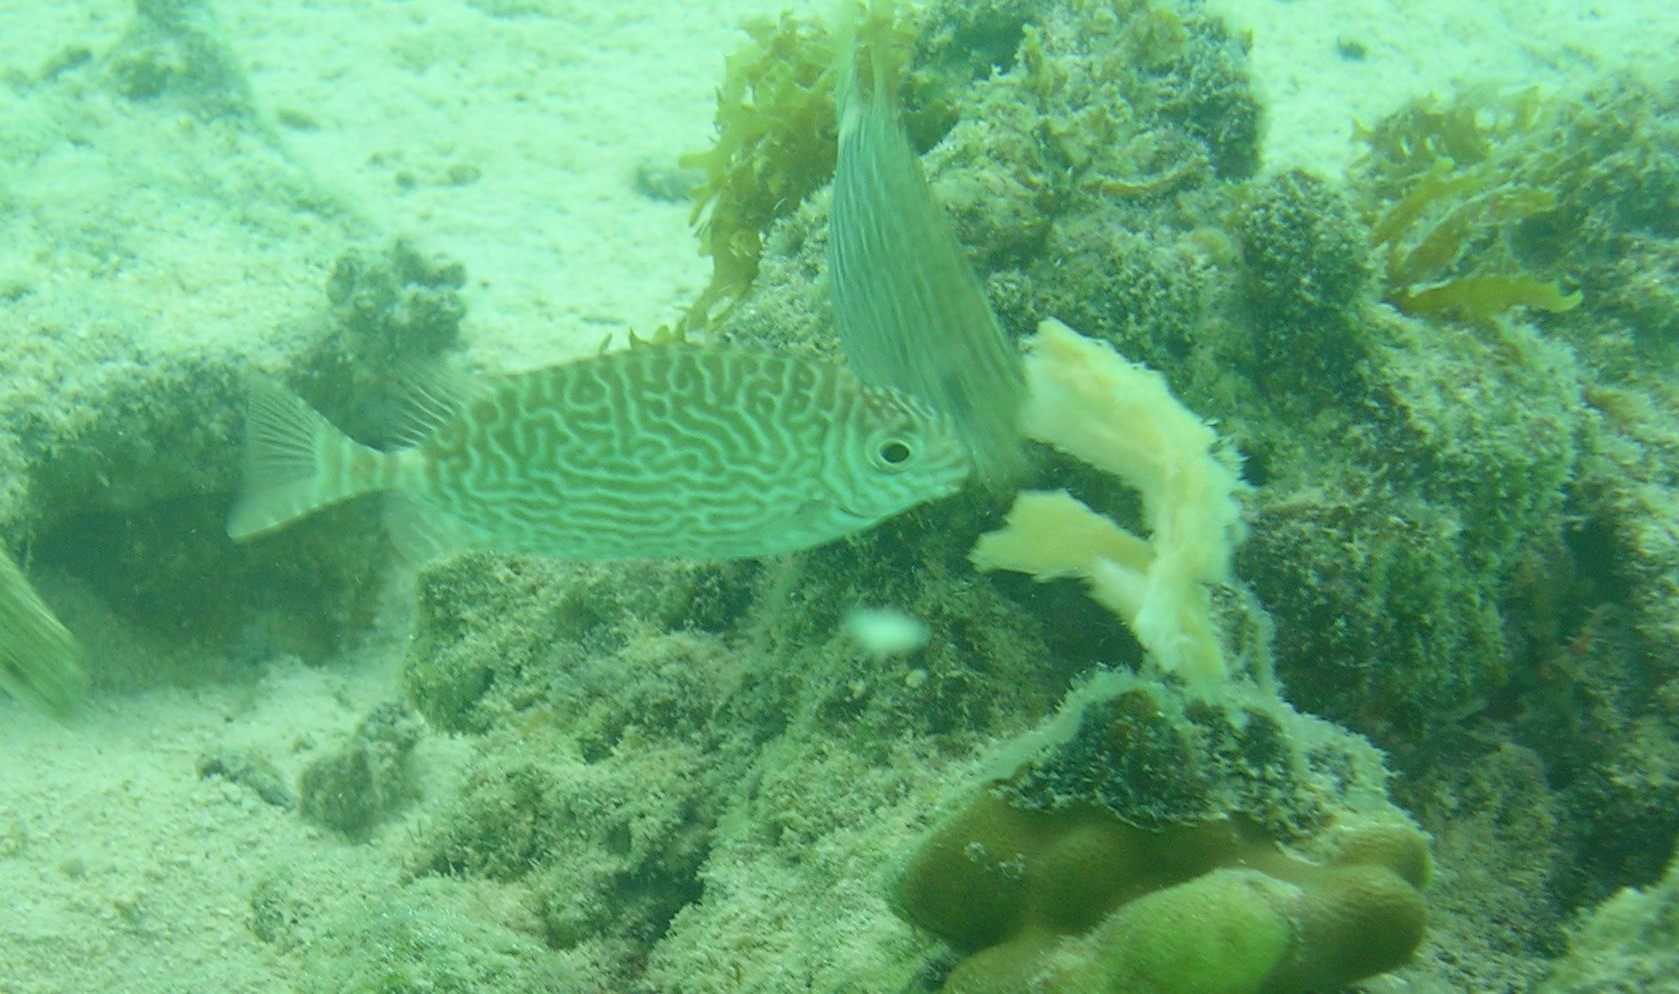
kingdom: Animalia
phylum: Chordata
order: Perciformes
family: Siganidae
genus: Siganus
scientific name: Siganus spinus
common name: Scribbled rabbitfish
